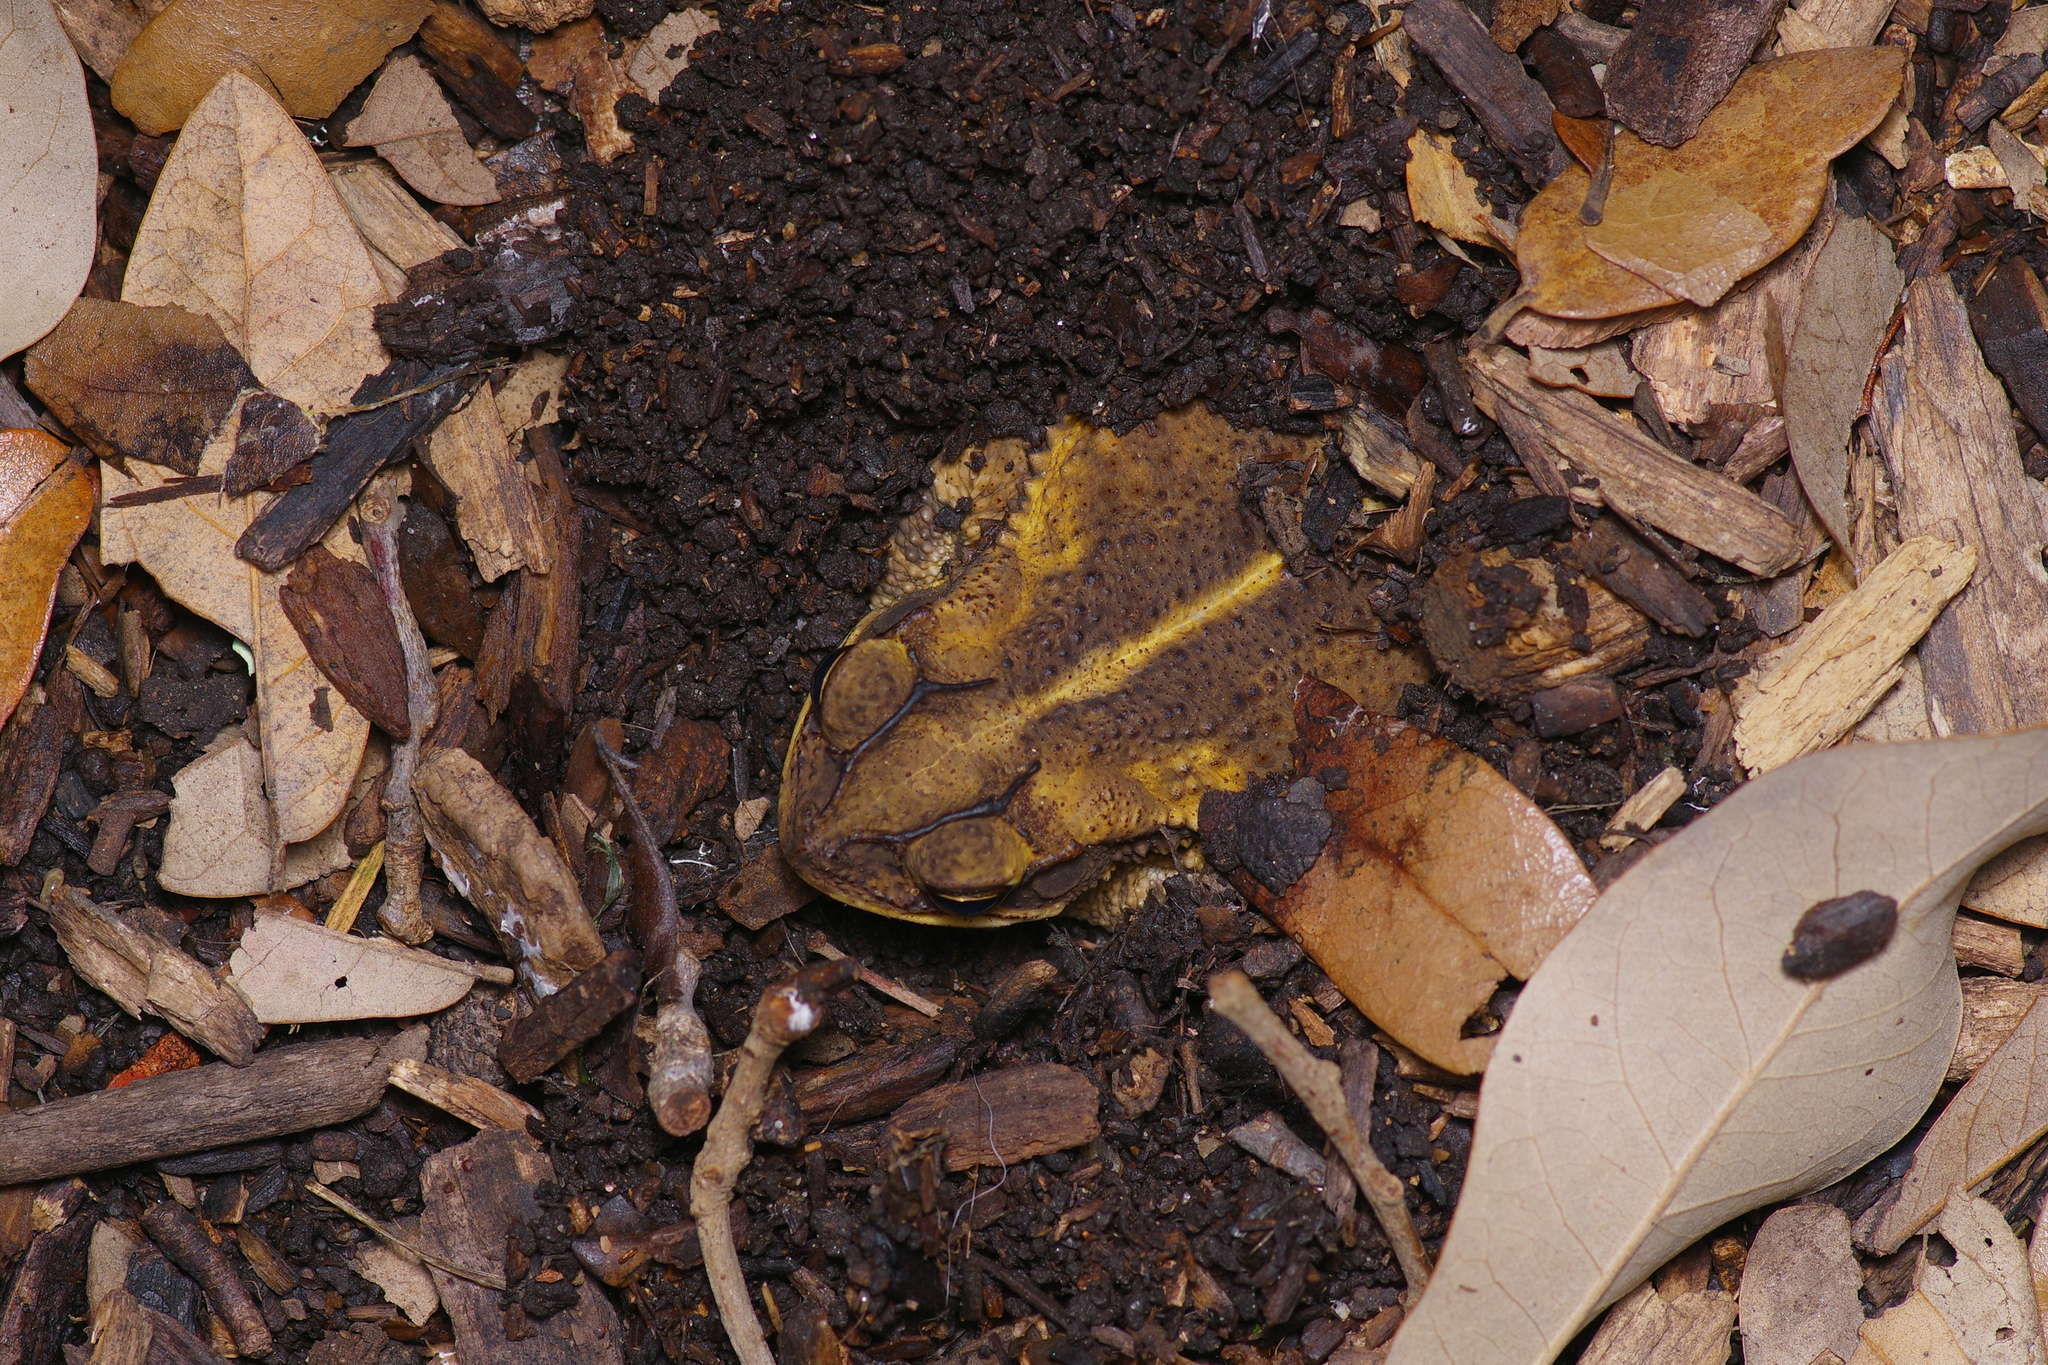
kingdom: Animalia
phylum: Chordata
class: Amphibia
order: Anura
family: Bufonidae
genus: Incilius
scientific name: Incilius nebulifer
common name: Gulf coast toad
